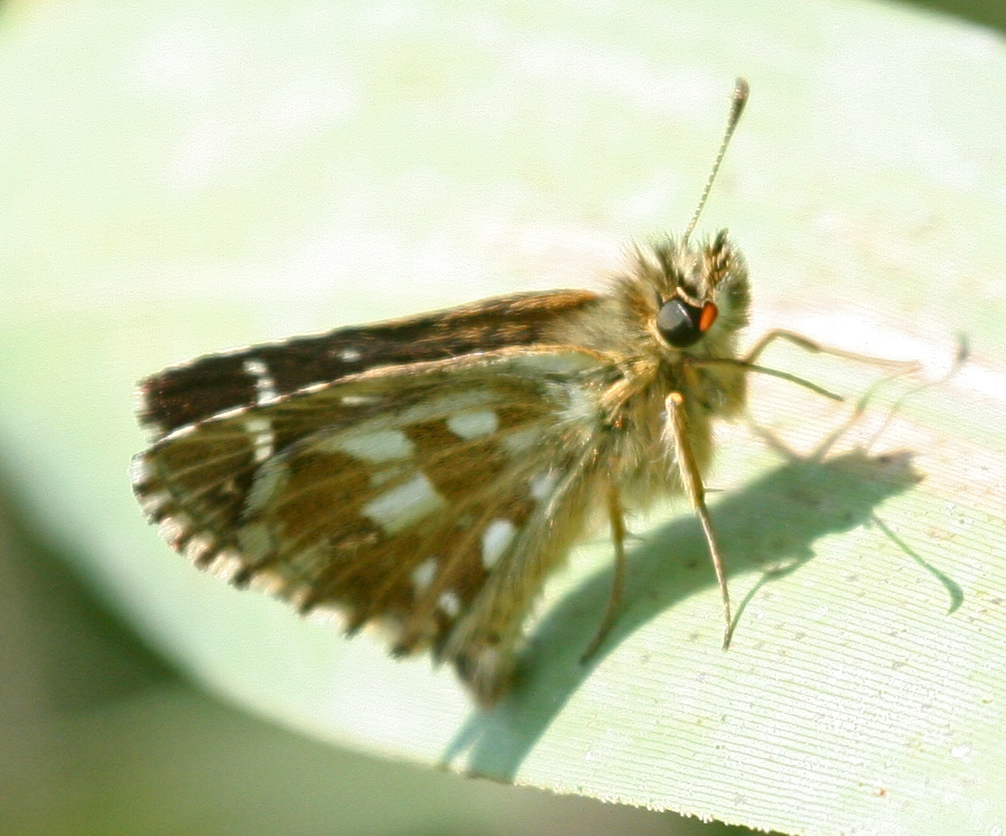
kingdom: Animalia
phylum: Arthropoda
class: Insecta
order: Lepidoptera
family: Hesperiidae
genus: Pyrgus
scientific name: Pyrgus
